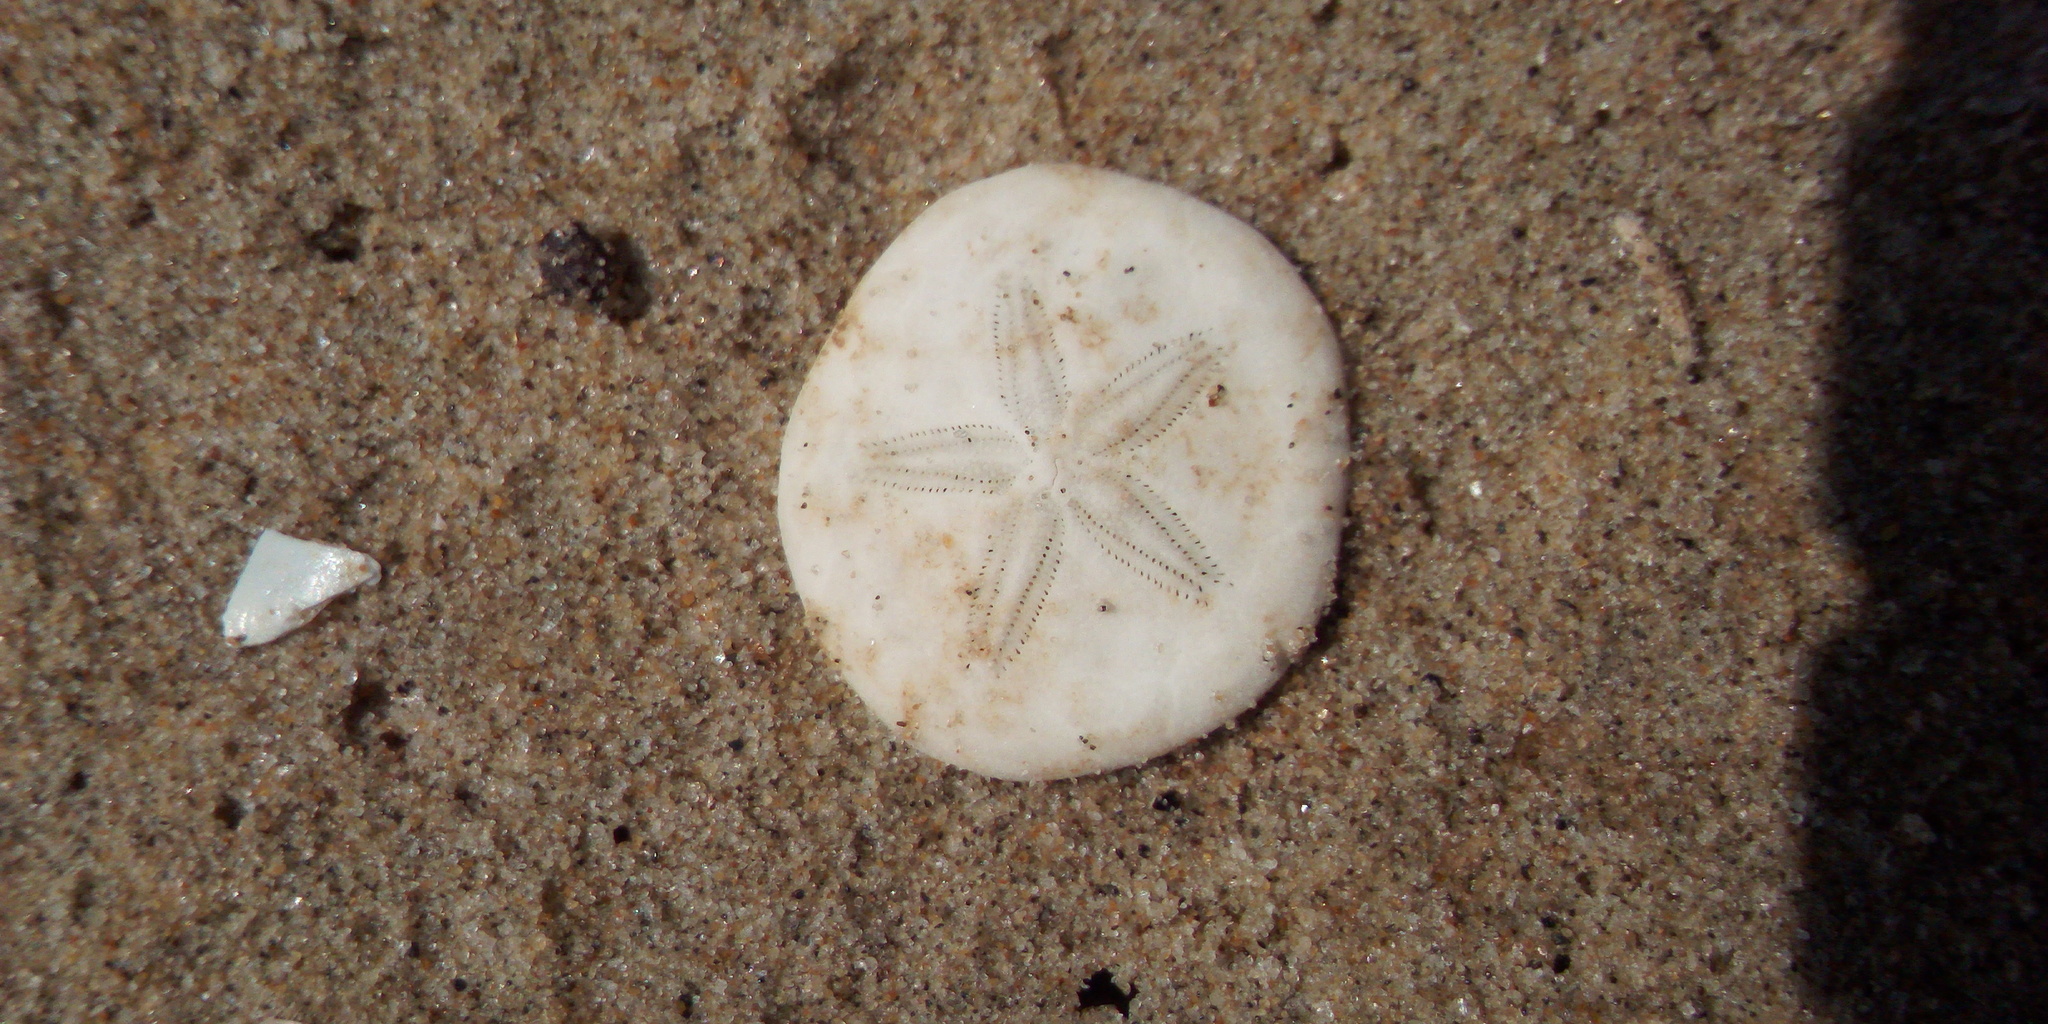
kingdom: Animalia
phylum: Echinodermata
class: Echinoidea
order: Echinolampadacea
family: Laganidae
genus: Jacksonaster
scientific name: Jacksonaster depressus
